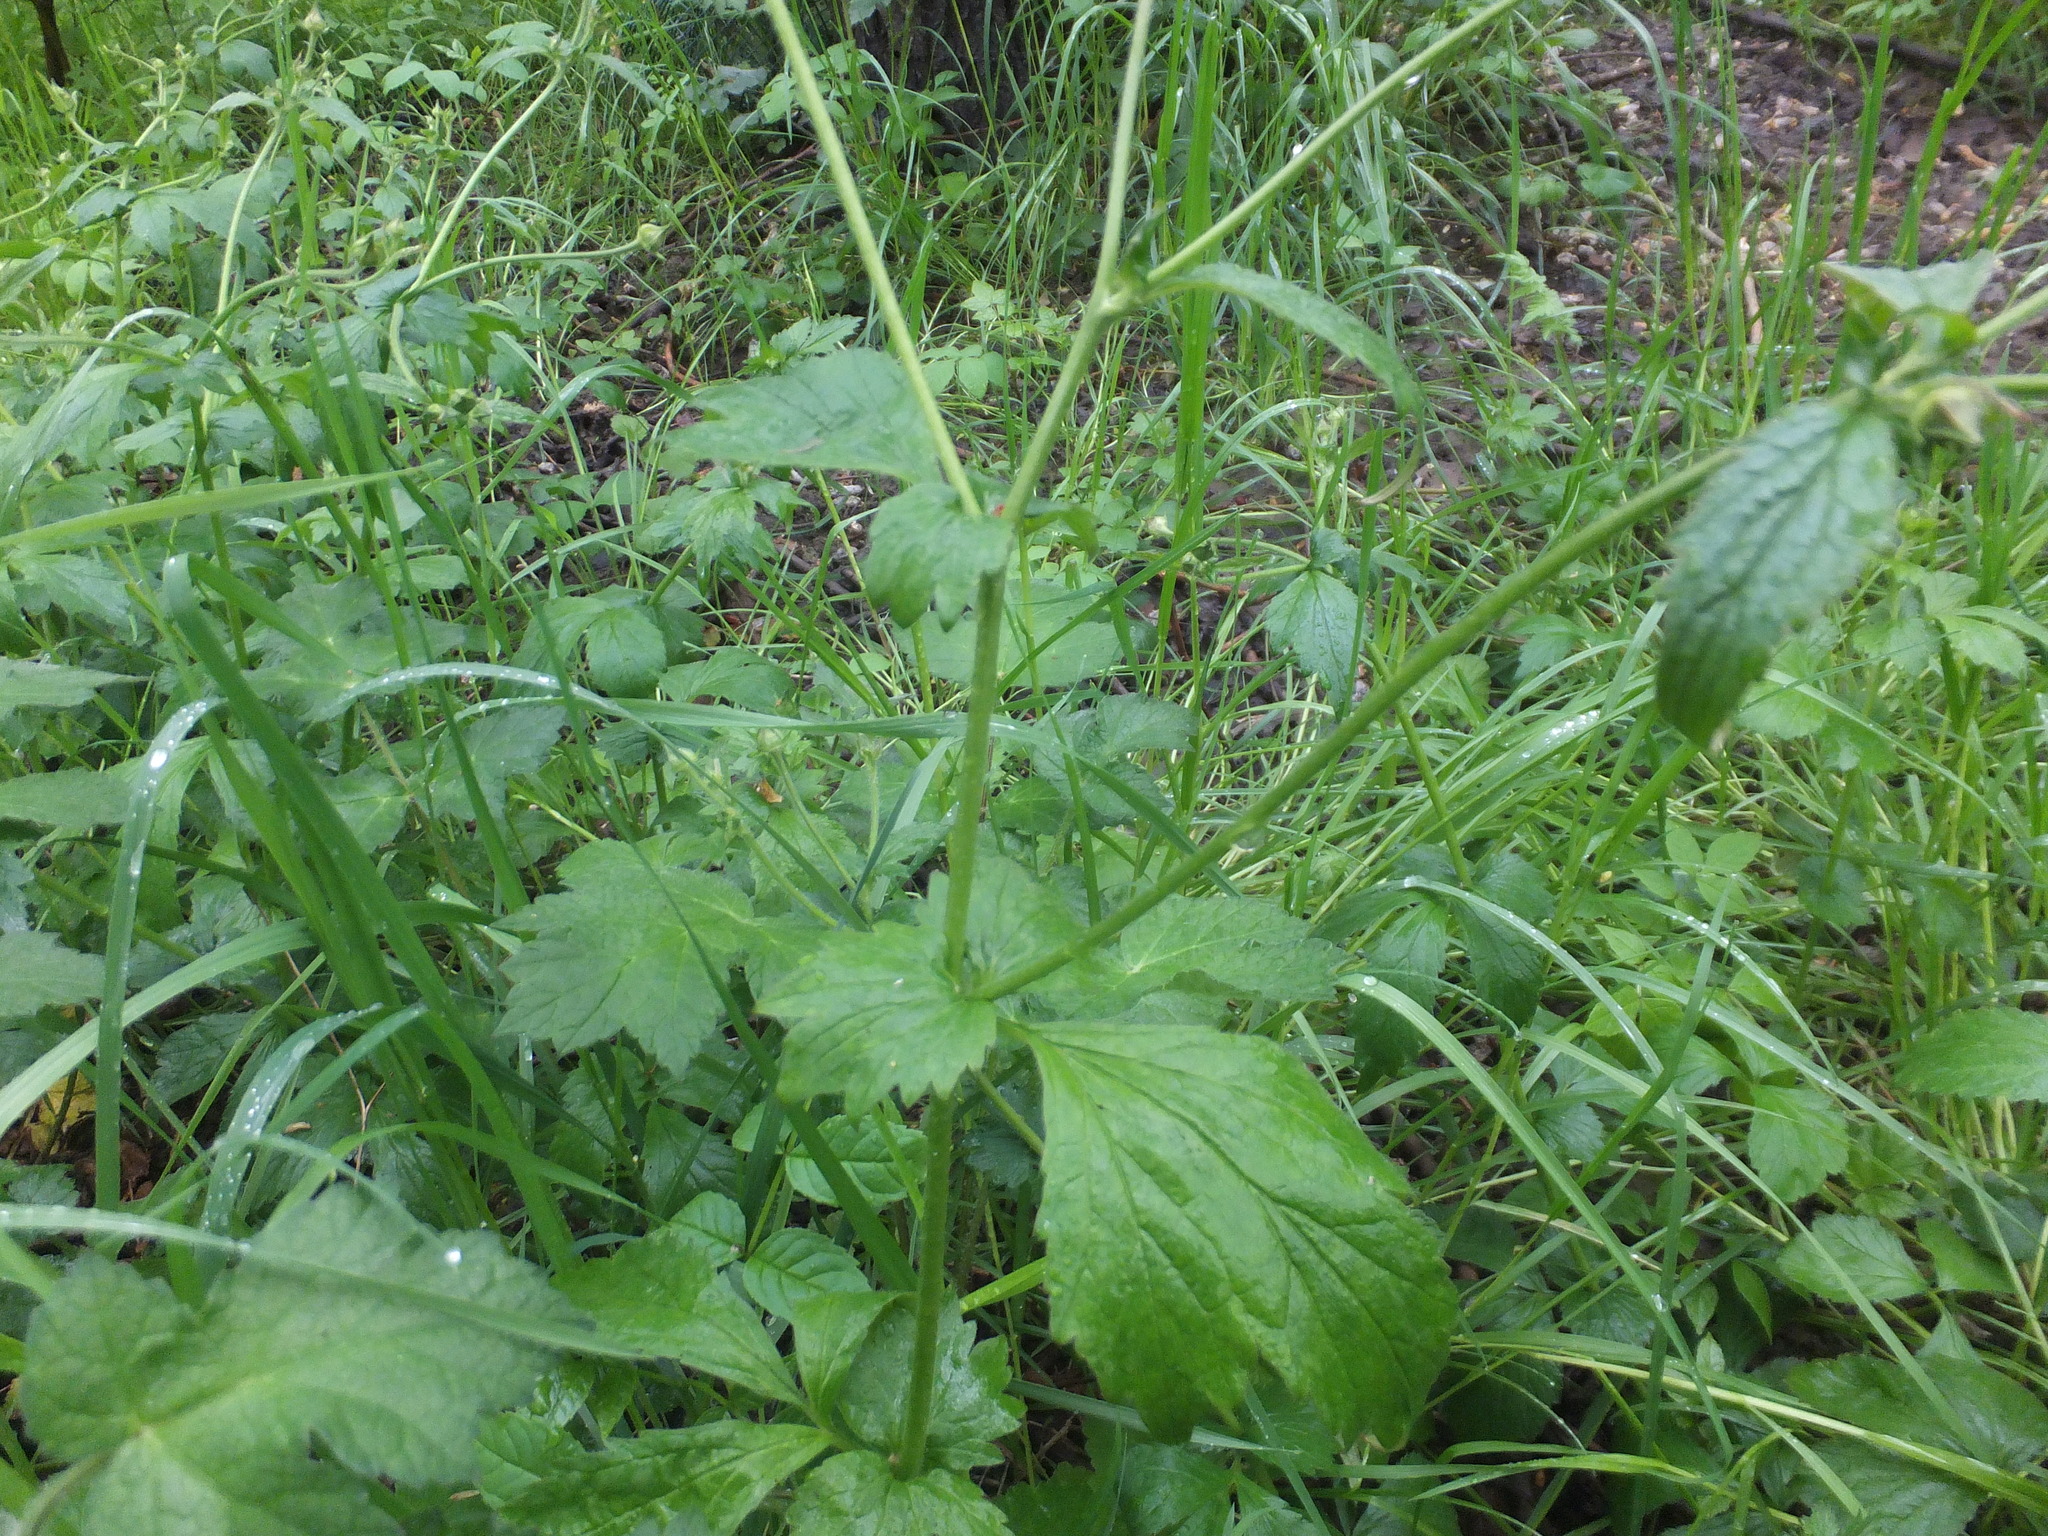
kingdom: Plantae
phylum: Tracheophyta
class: Magnoliopsida
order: Rosales
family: Rosaceae
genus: Geum
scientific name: Geum urbanum
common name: Wood avens
